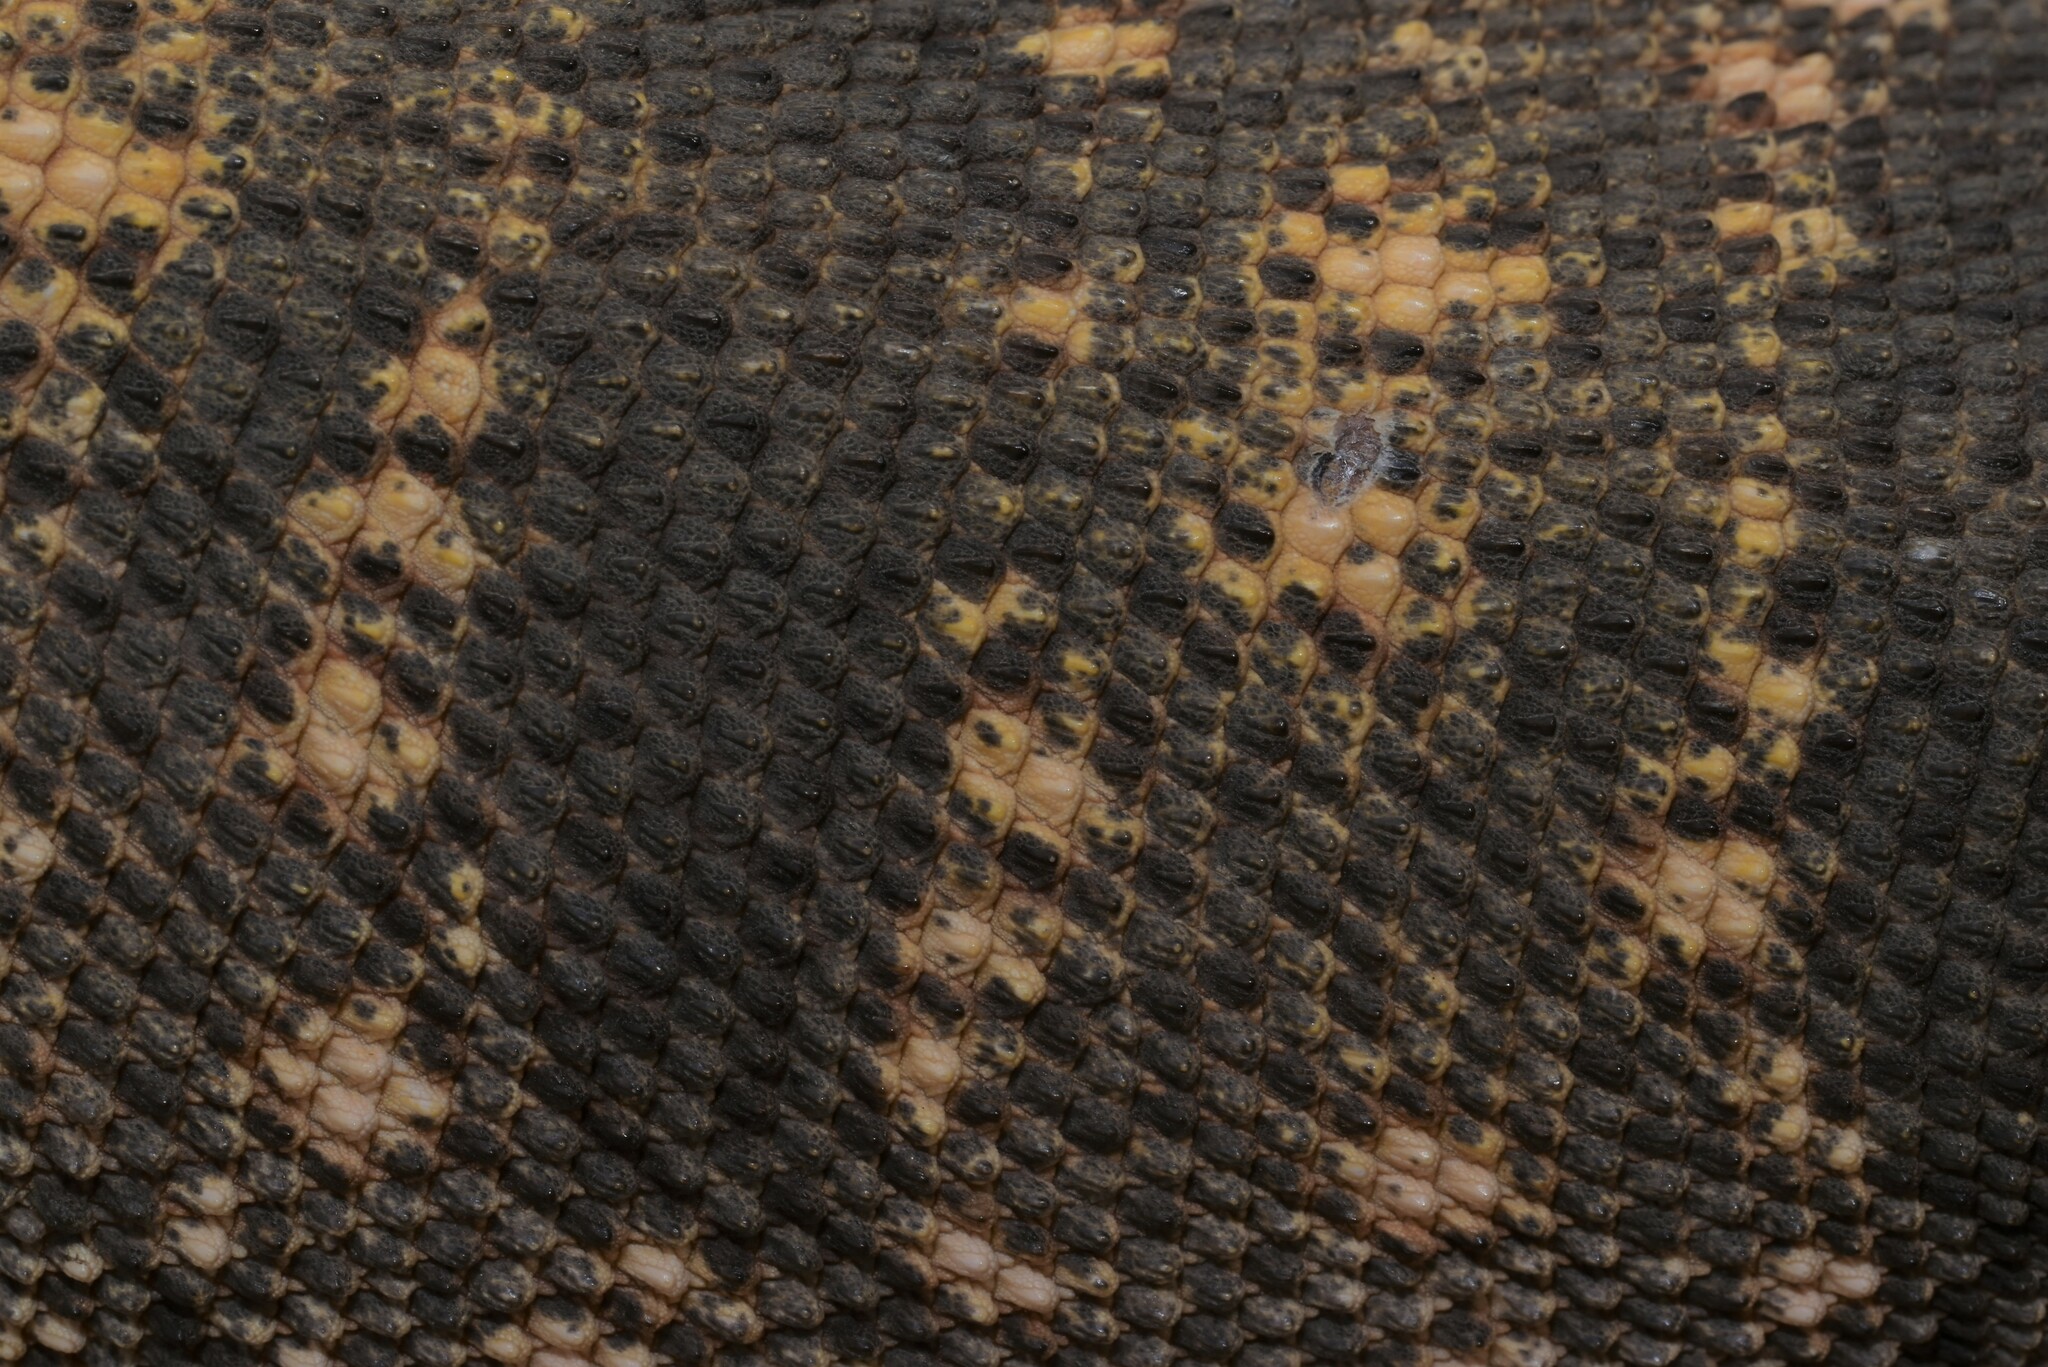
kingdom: Animalia
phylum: Chordata
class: Squamata
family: Varanidae
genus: Varanus
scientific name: Varanus griseus
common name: Desert monitor
